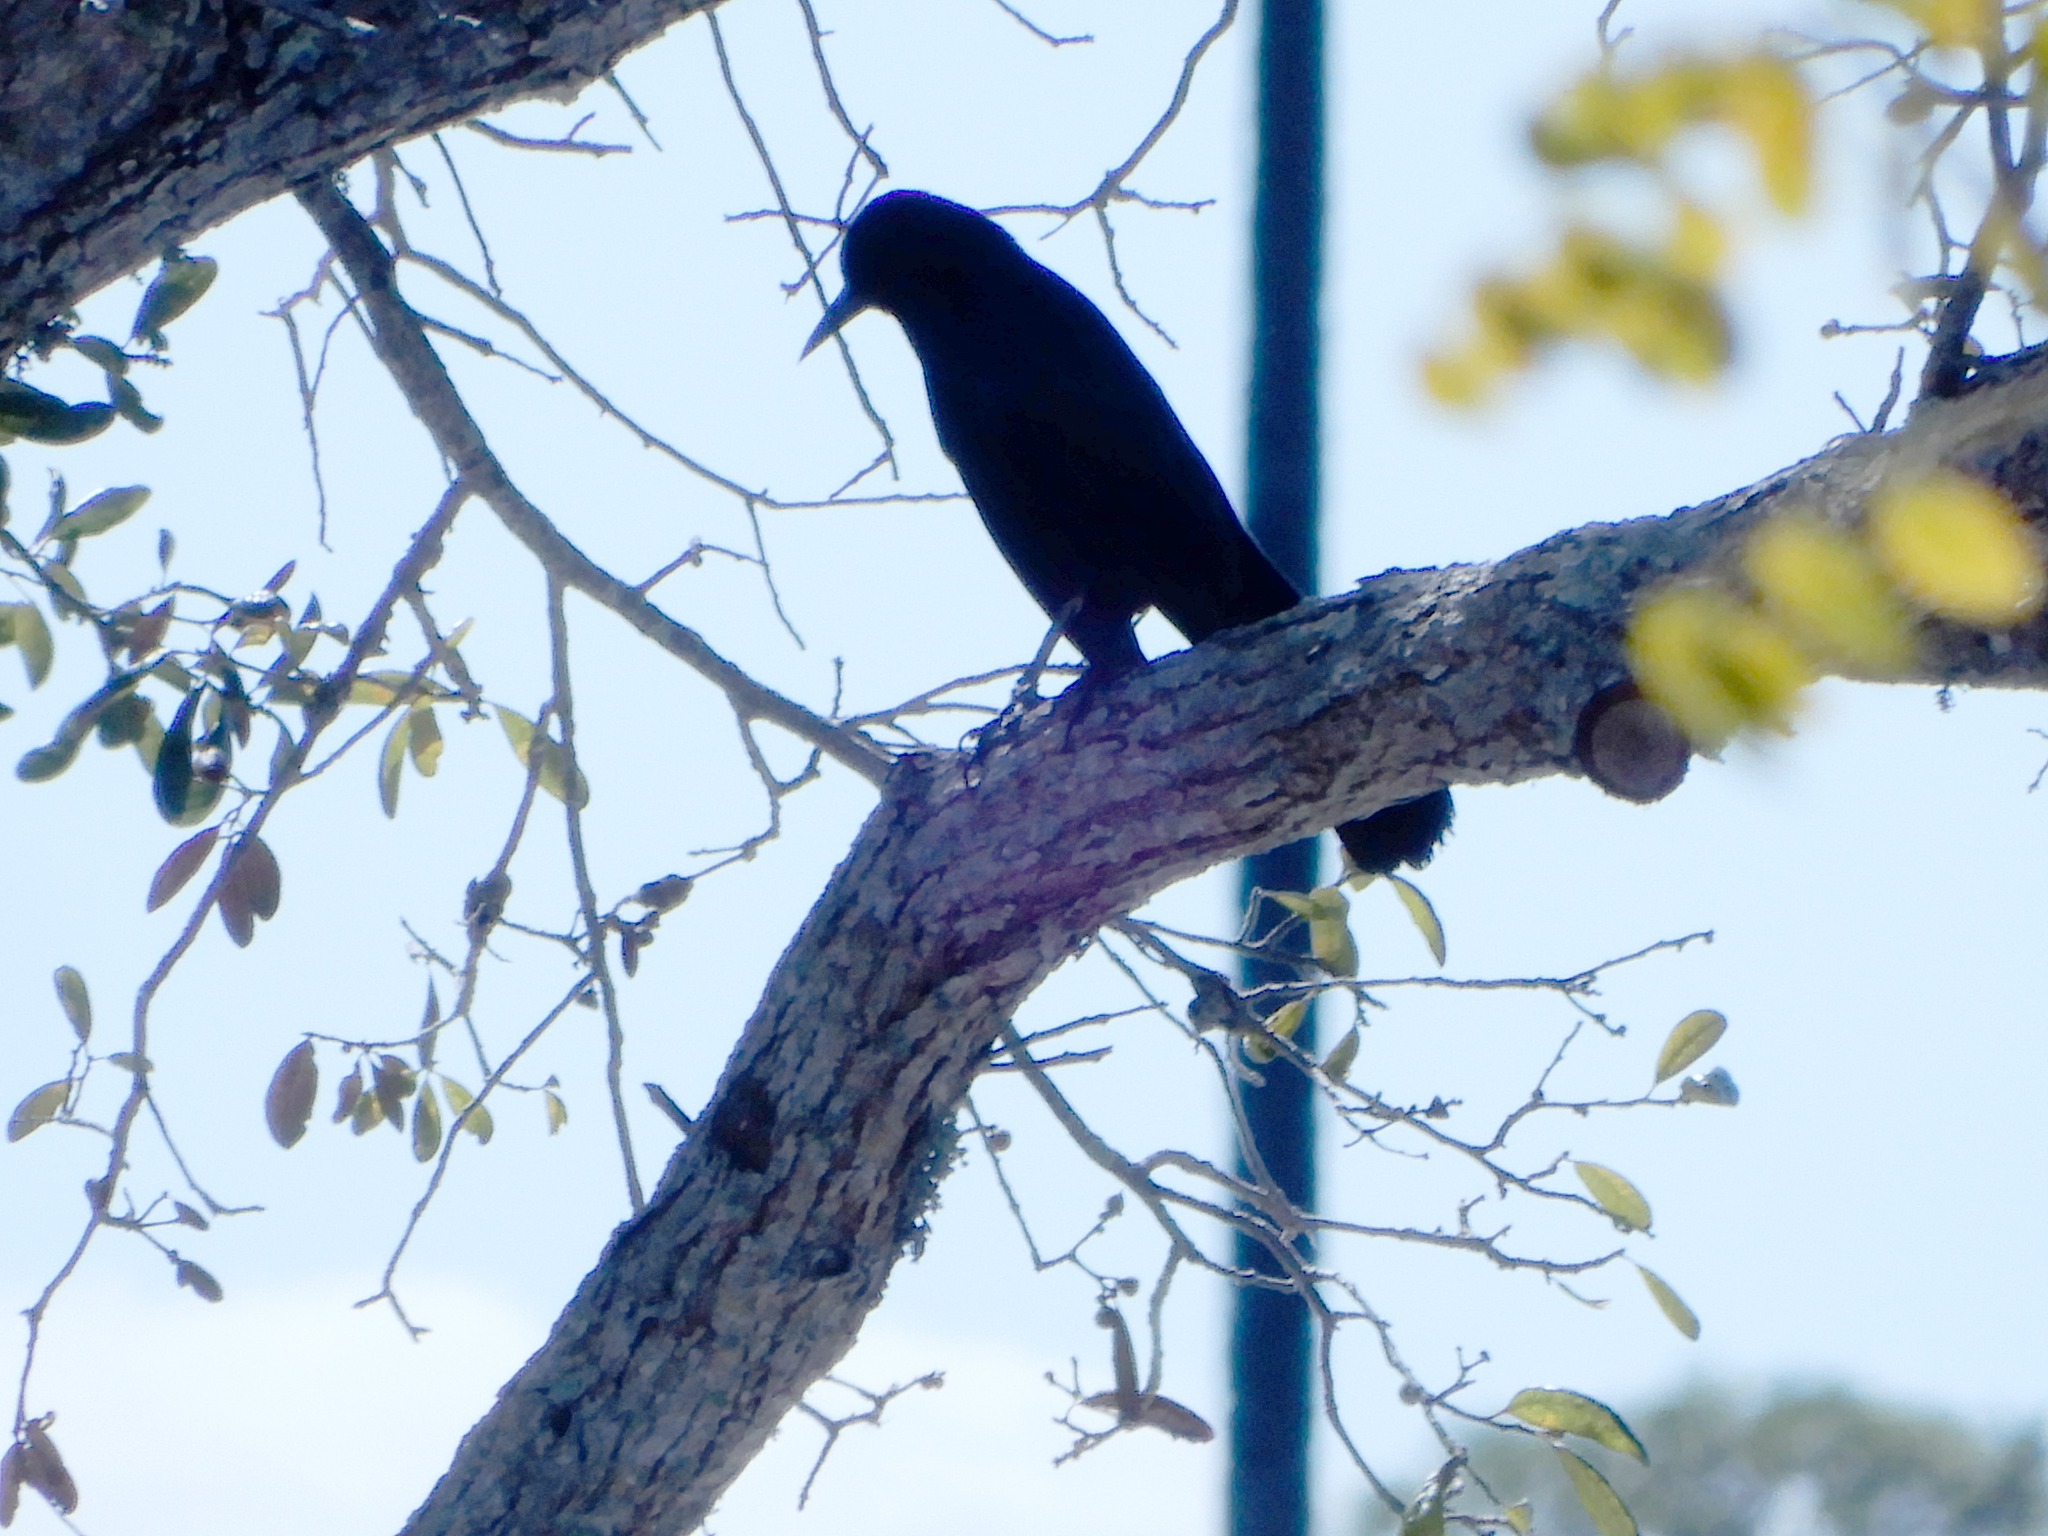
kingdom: Animalia
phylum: Chordata
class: Aves
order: Passeriformes
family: Icteridae
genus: Quiscalus
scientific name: Quiscalus major
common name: Boat-tailed grackle
